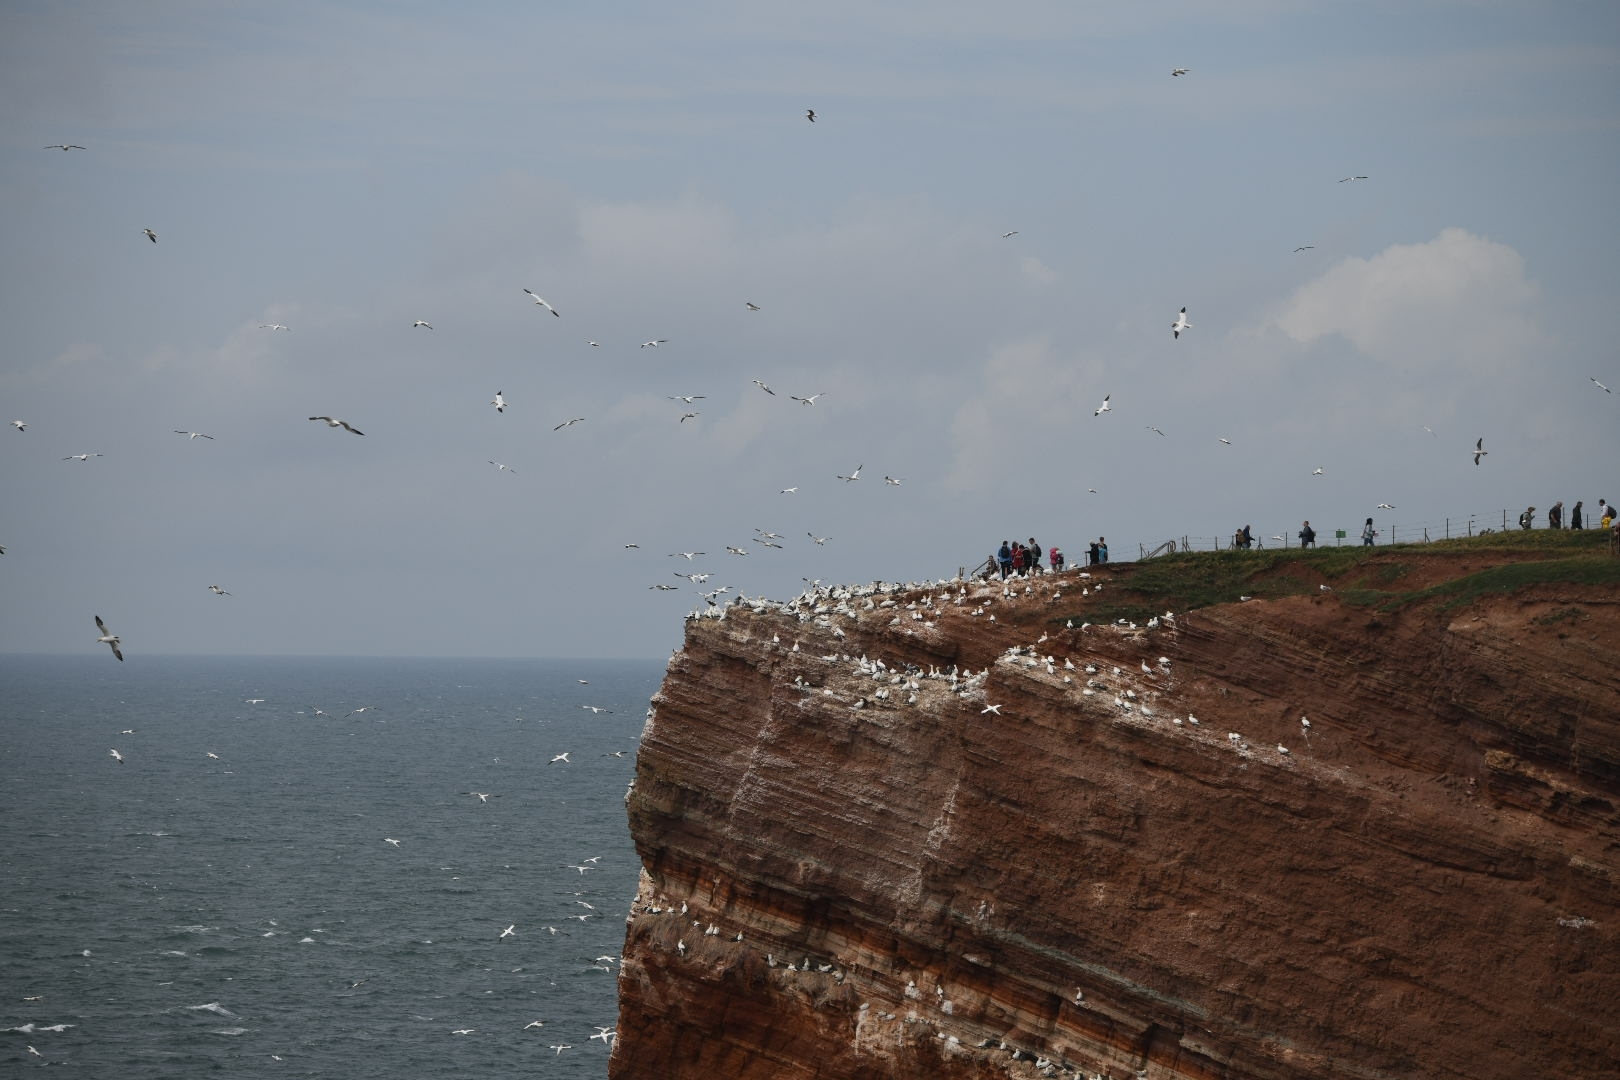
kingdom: Animalia
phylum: Chordata
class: Aves
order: Suliformes
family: Sulidae
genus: Morus
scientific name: Morus bassanus
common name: Northern gannet
